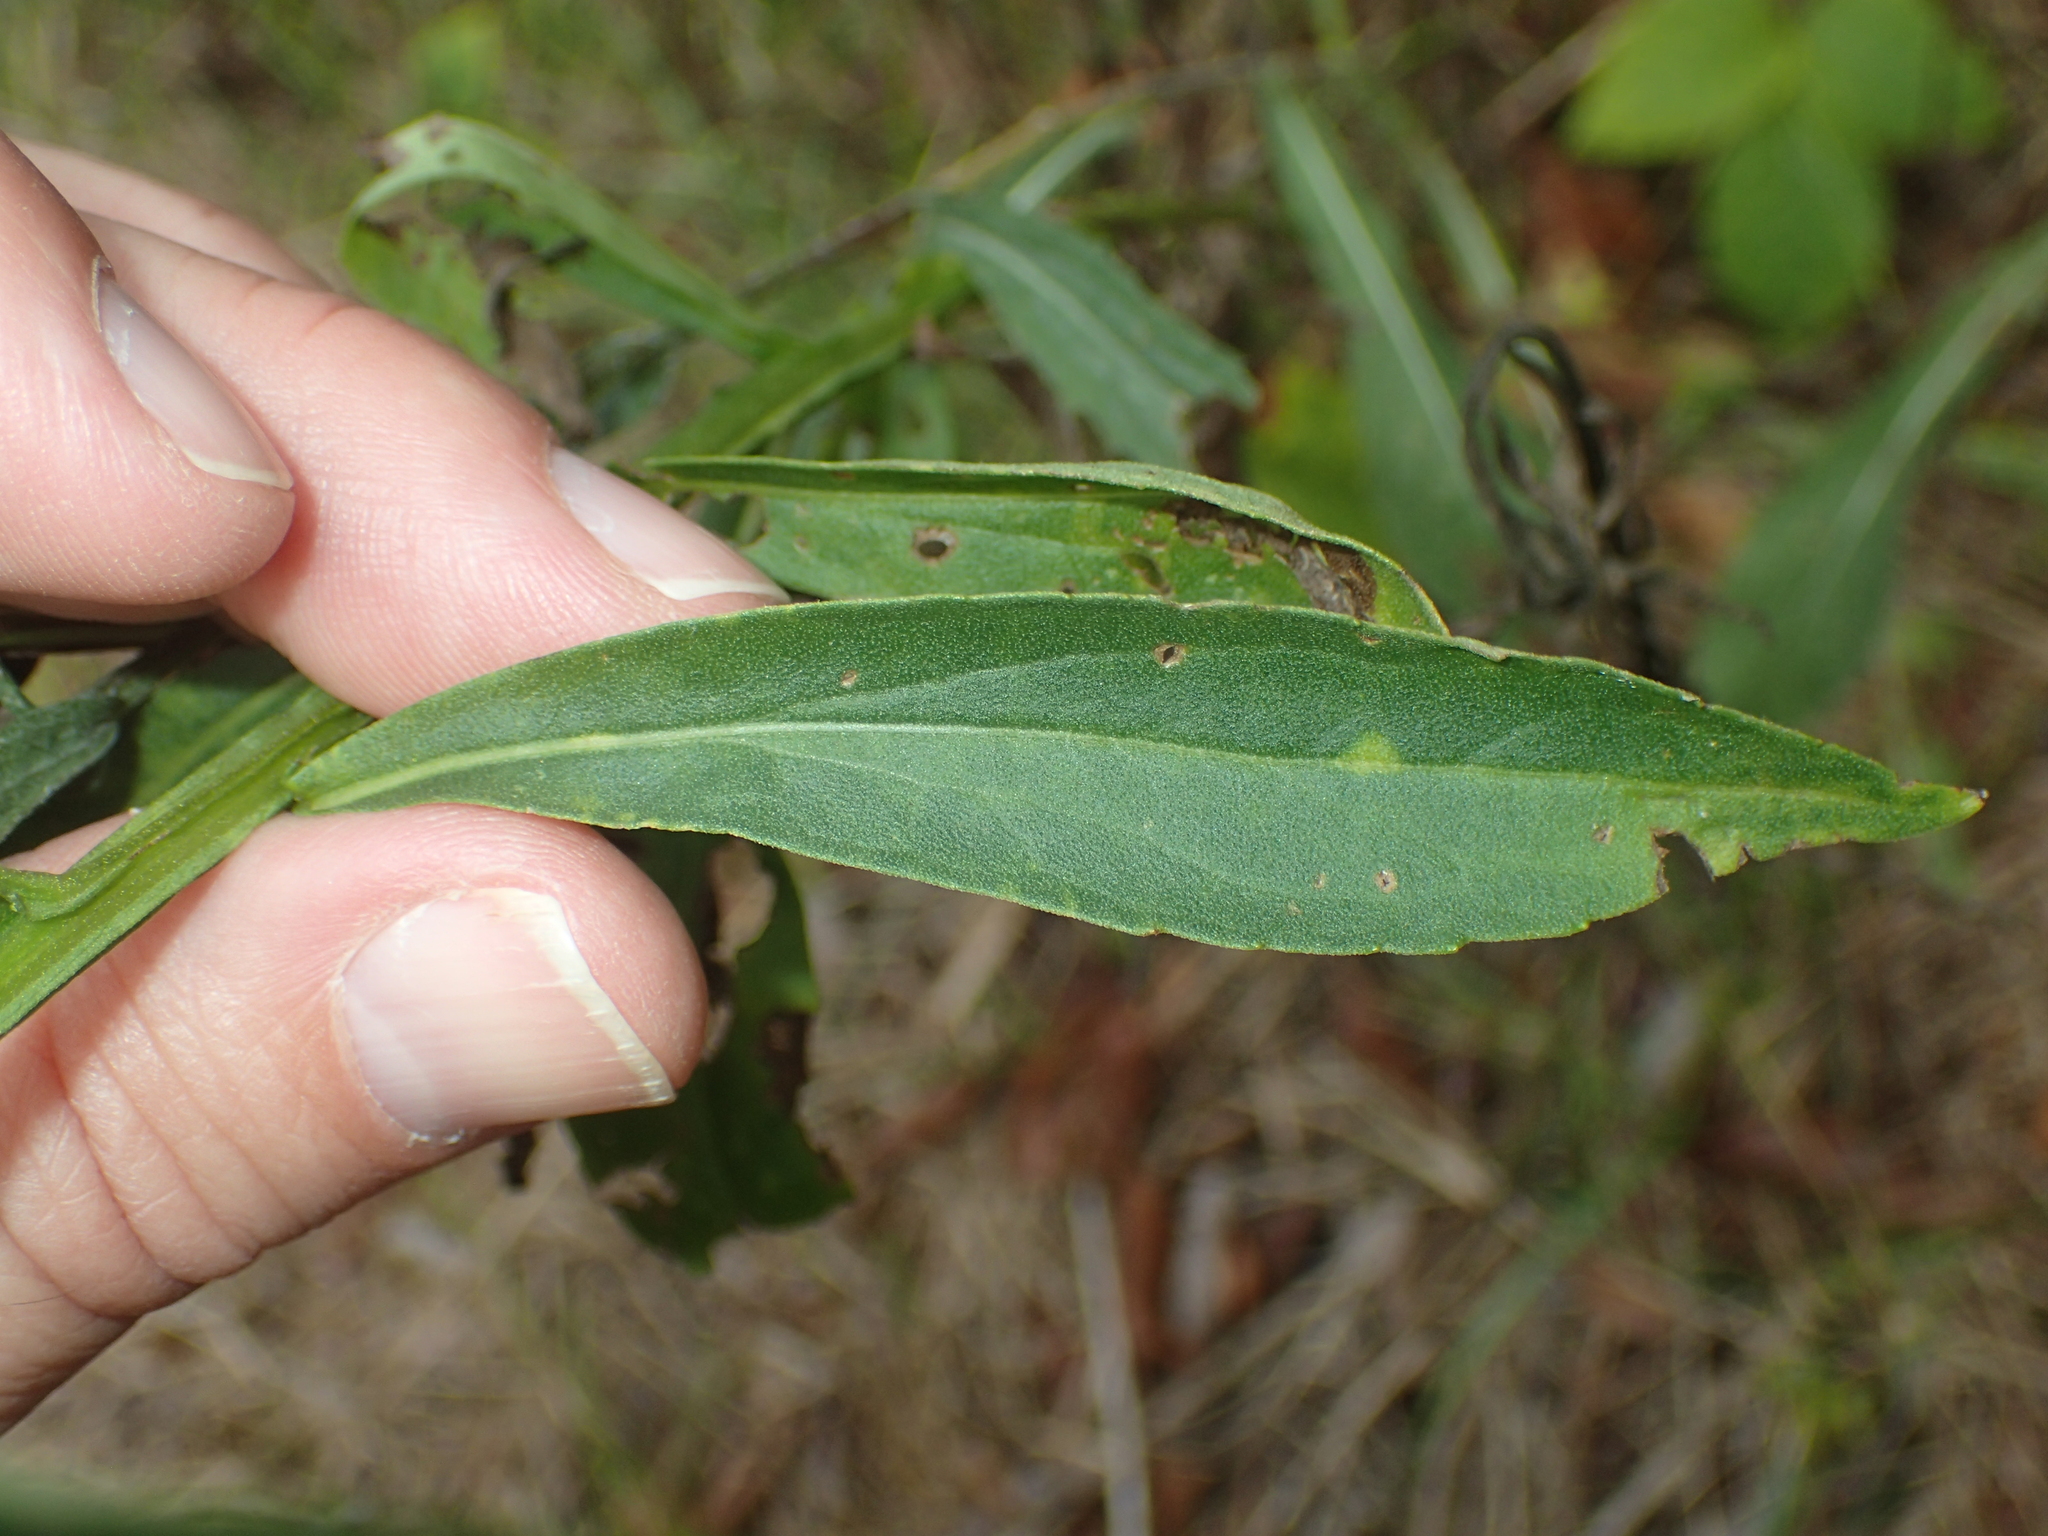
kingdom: Plantae
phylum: Tracheophyta
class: Magnoliopsida
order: Asterales
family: Asteraceae
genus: Helenium
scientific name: Helenium autumnale
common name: Sneezeweed
